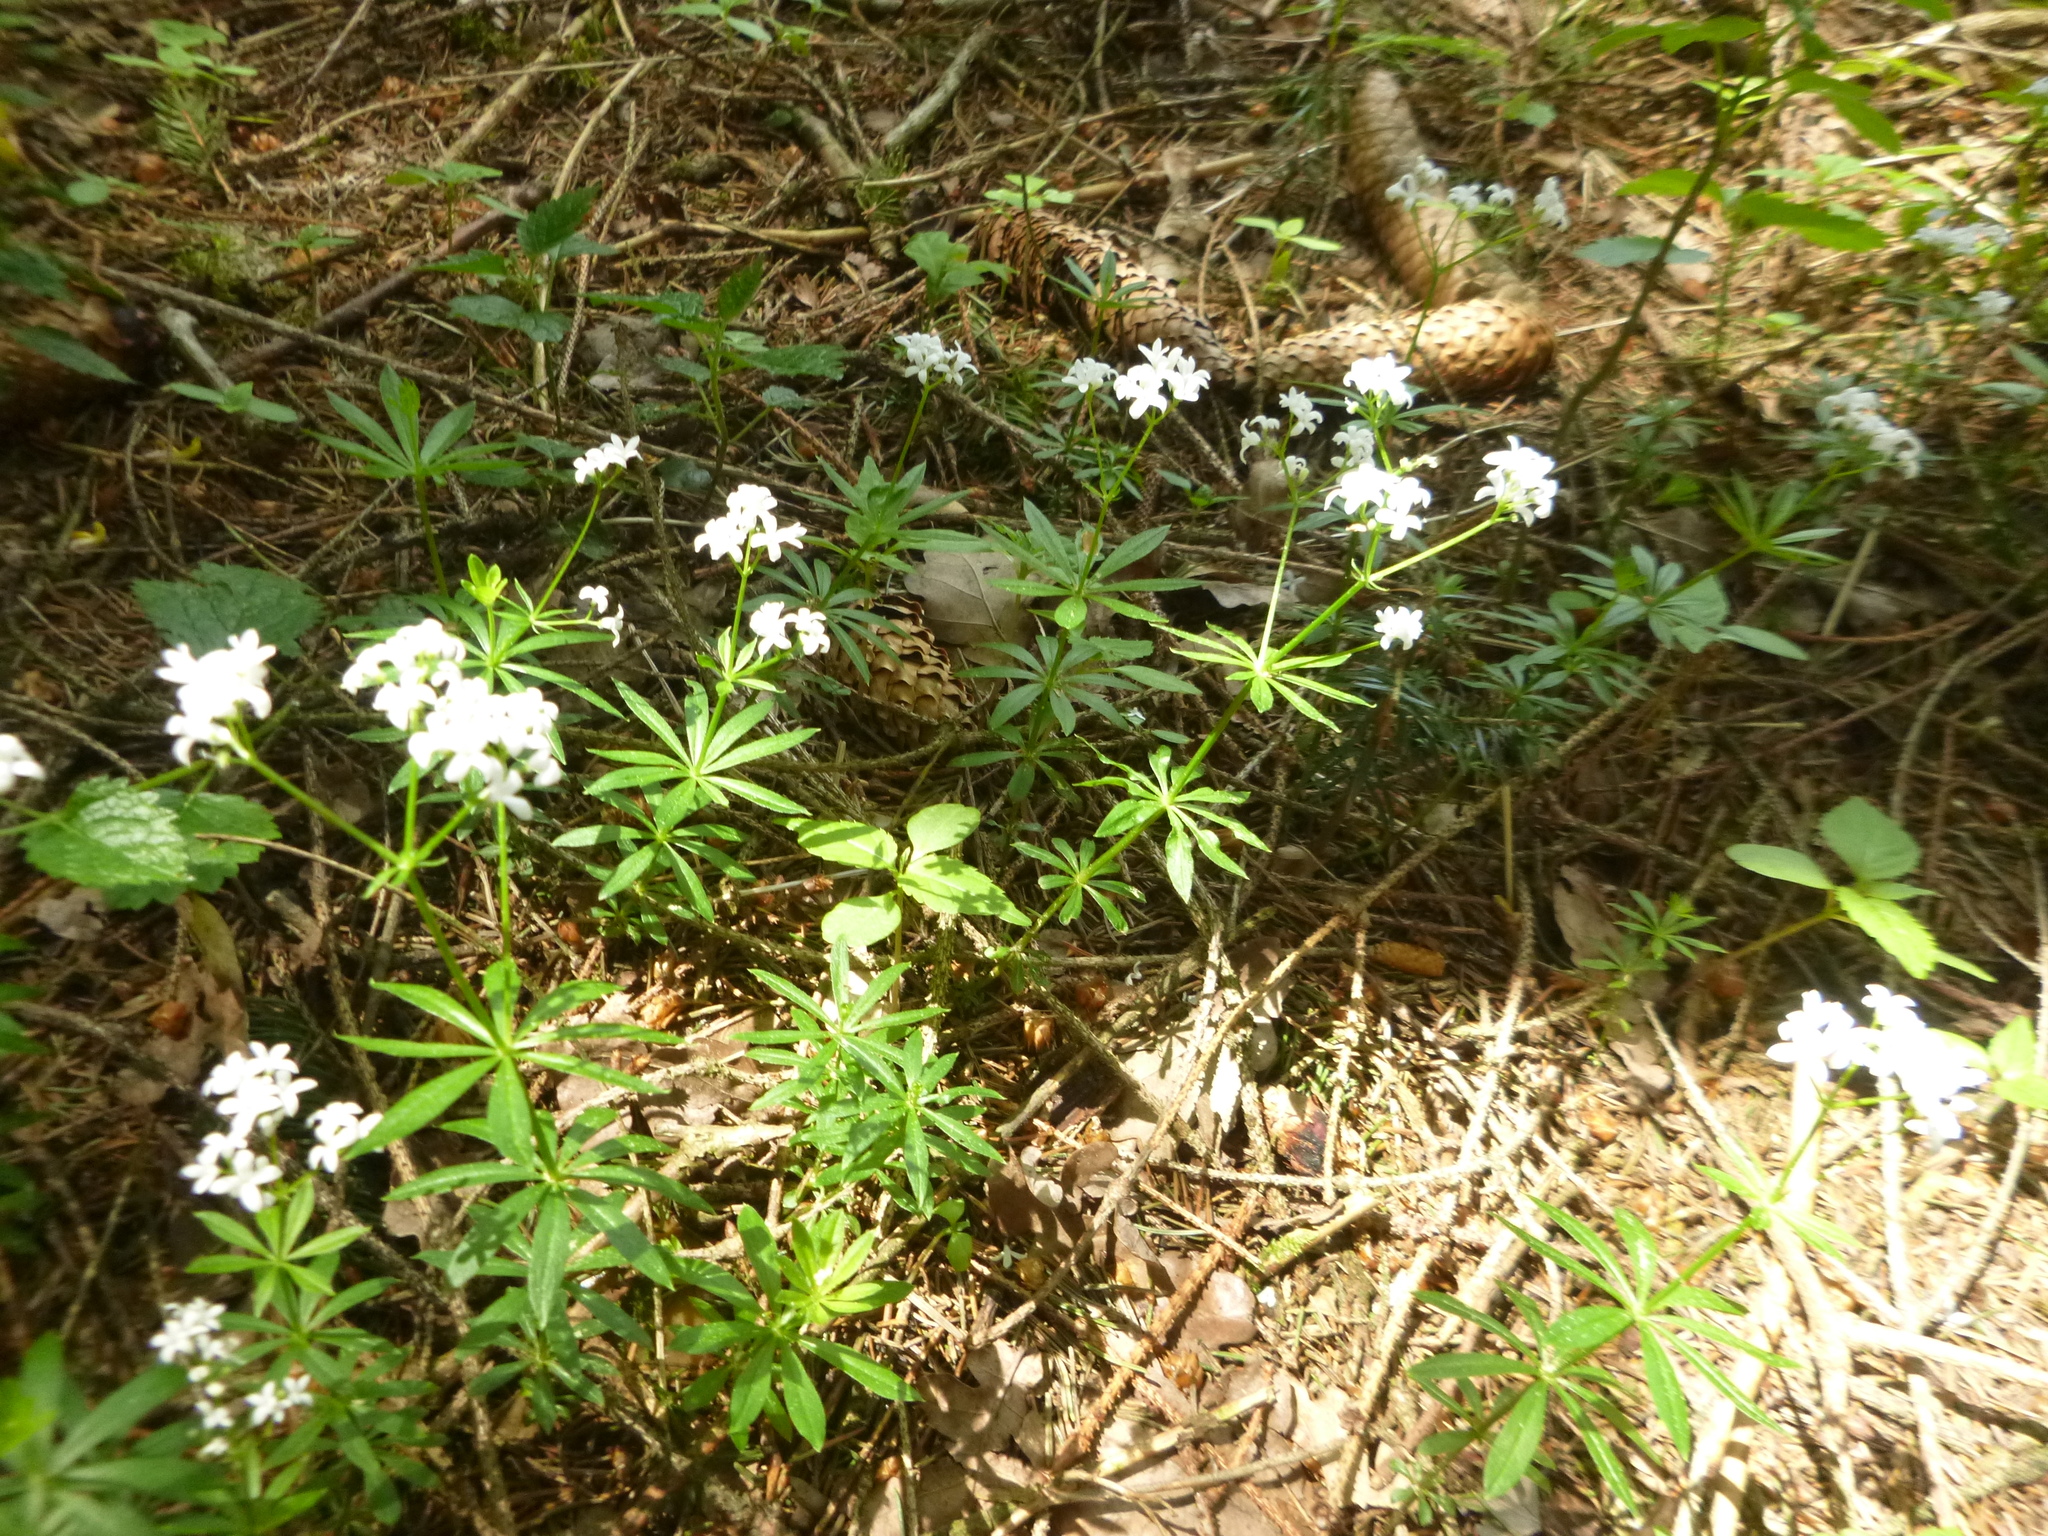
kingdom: Plantae
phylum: Tracheophyta
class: Magnoliopsida
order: Gentianales
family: Rubiaceae
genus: Galium
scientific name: Galium odoratum
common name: Sweet woodruff
